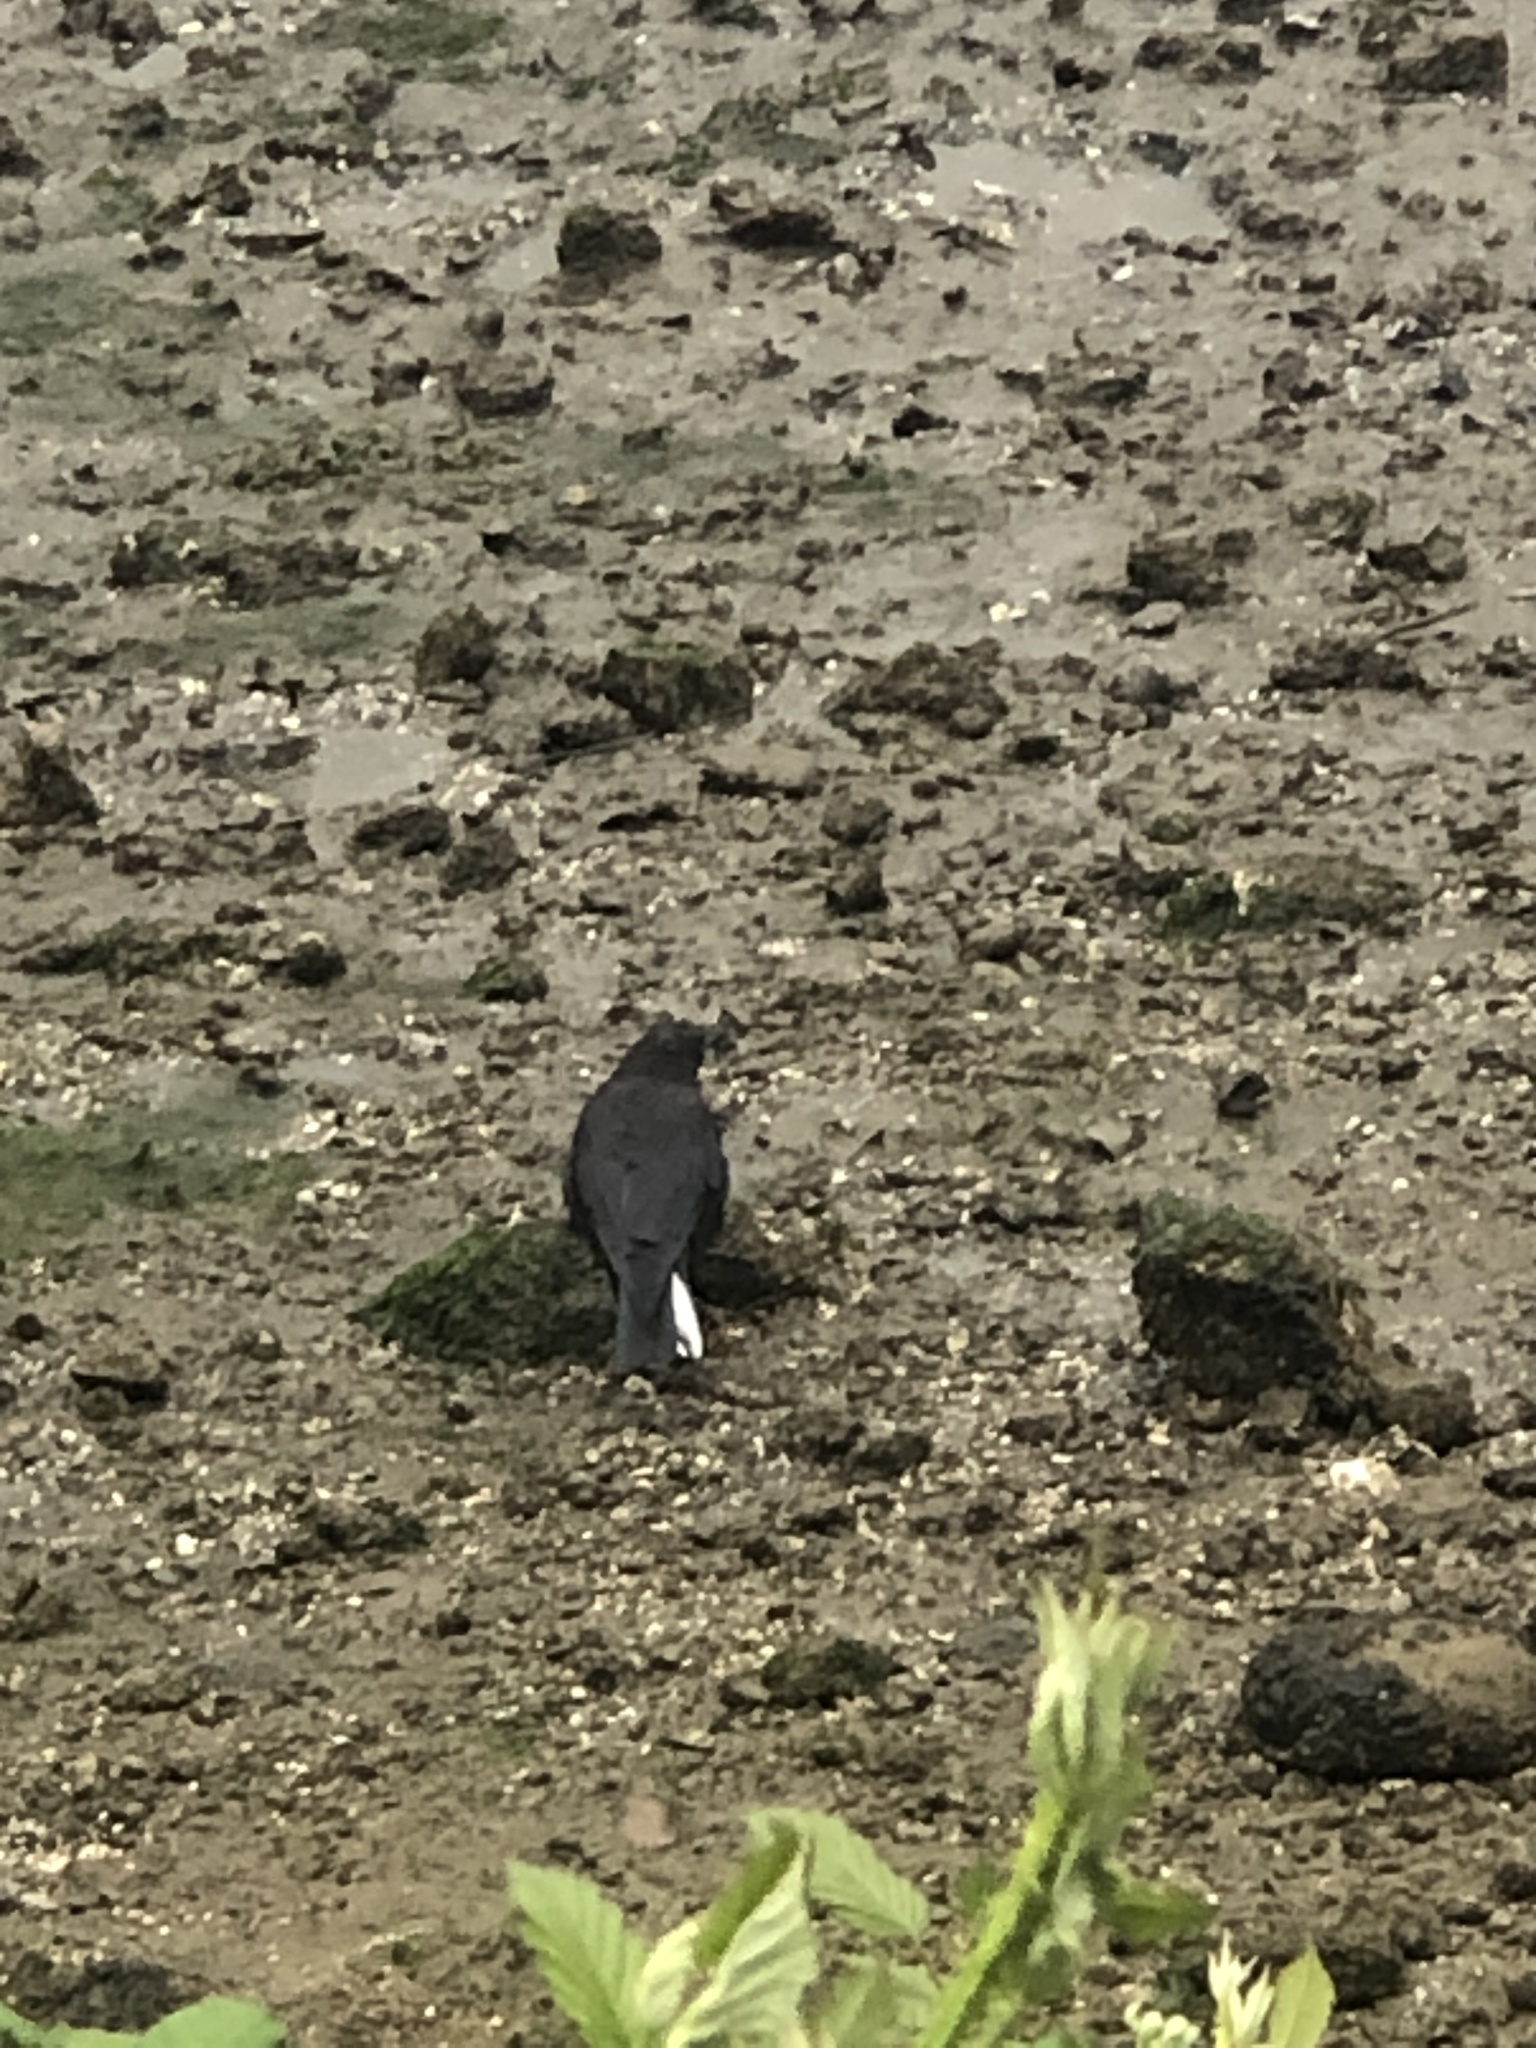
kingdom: Animalia
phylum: Chordata
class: Aves
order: Passeriformes
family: Corvidae
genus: Corvus
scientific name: Corvus brachyrhynchos
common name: American crow
